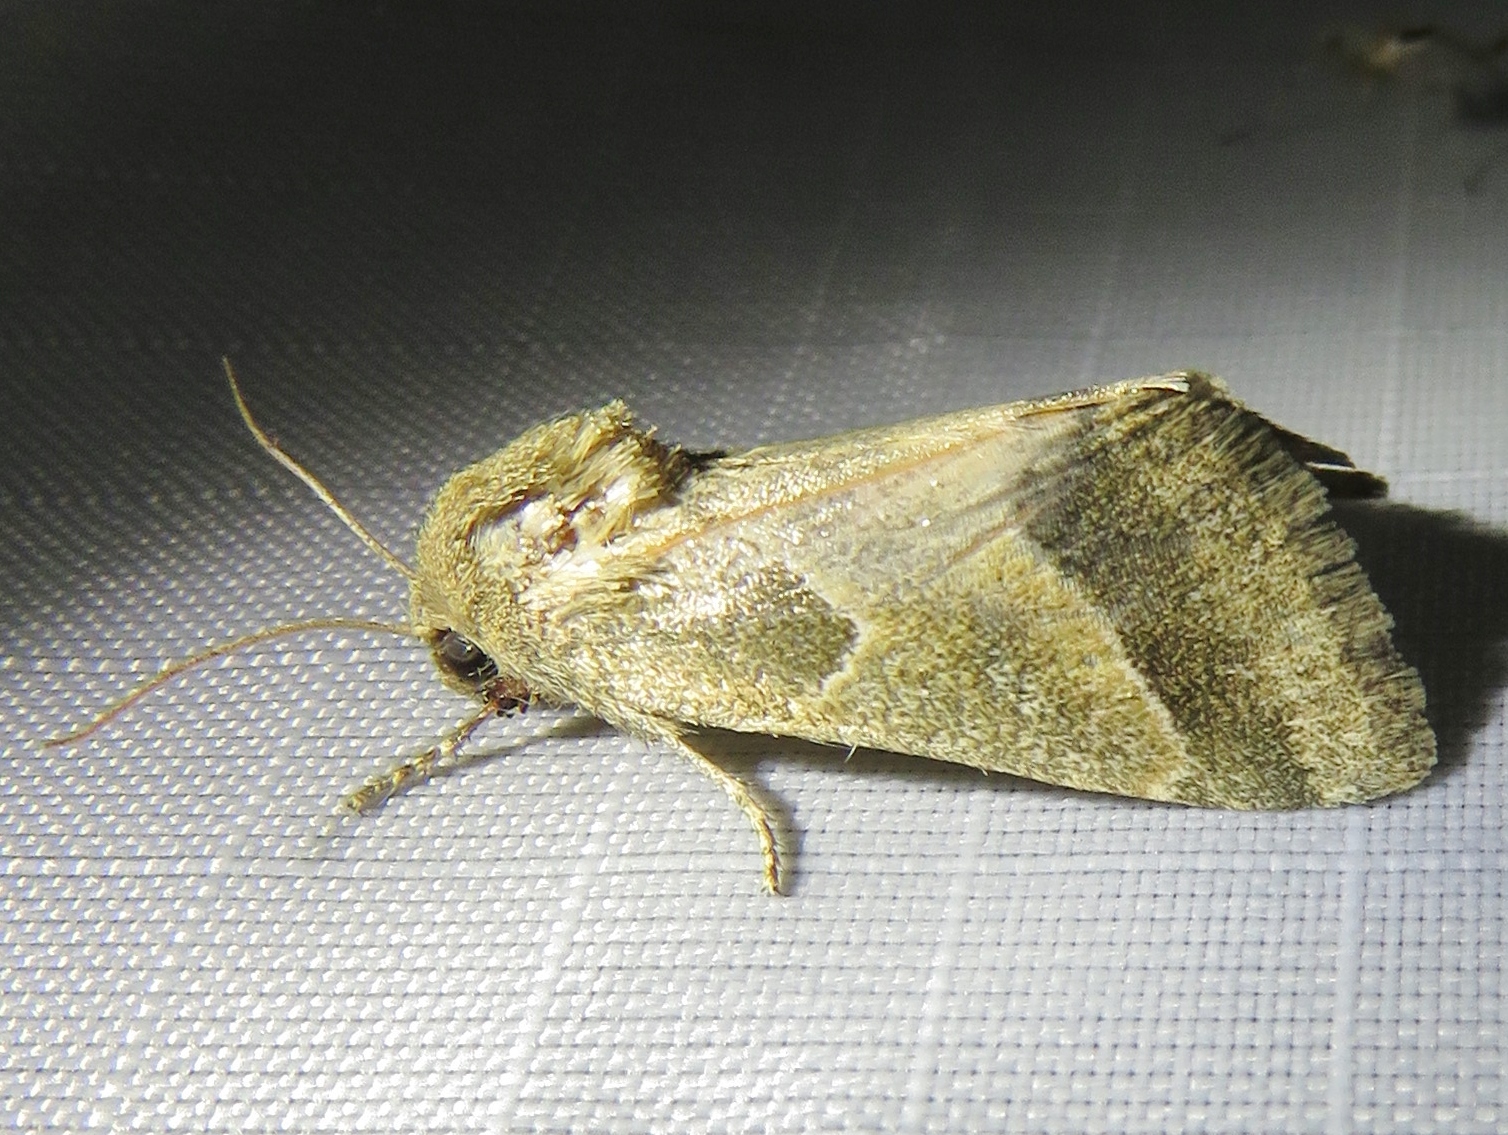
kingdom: Animalia
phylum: Arthropoda
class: Insecta
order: Lepidoptera
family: Noctuidae
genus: Schinia
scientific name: Schinia gracilenta
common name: Slender flower moth
